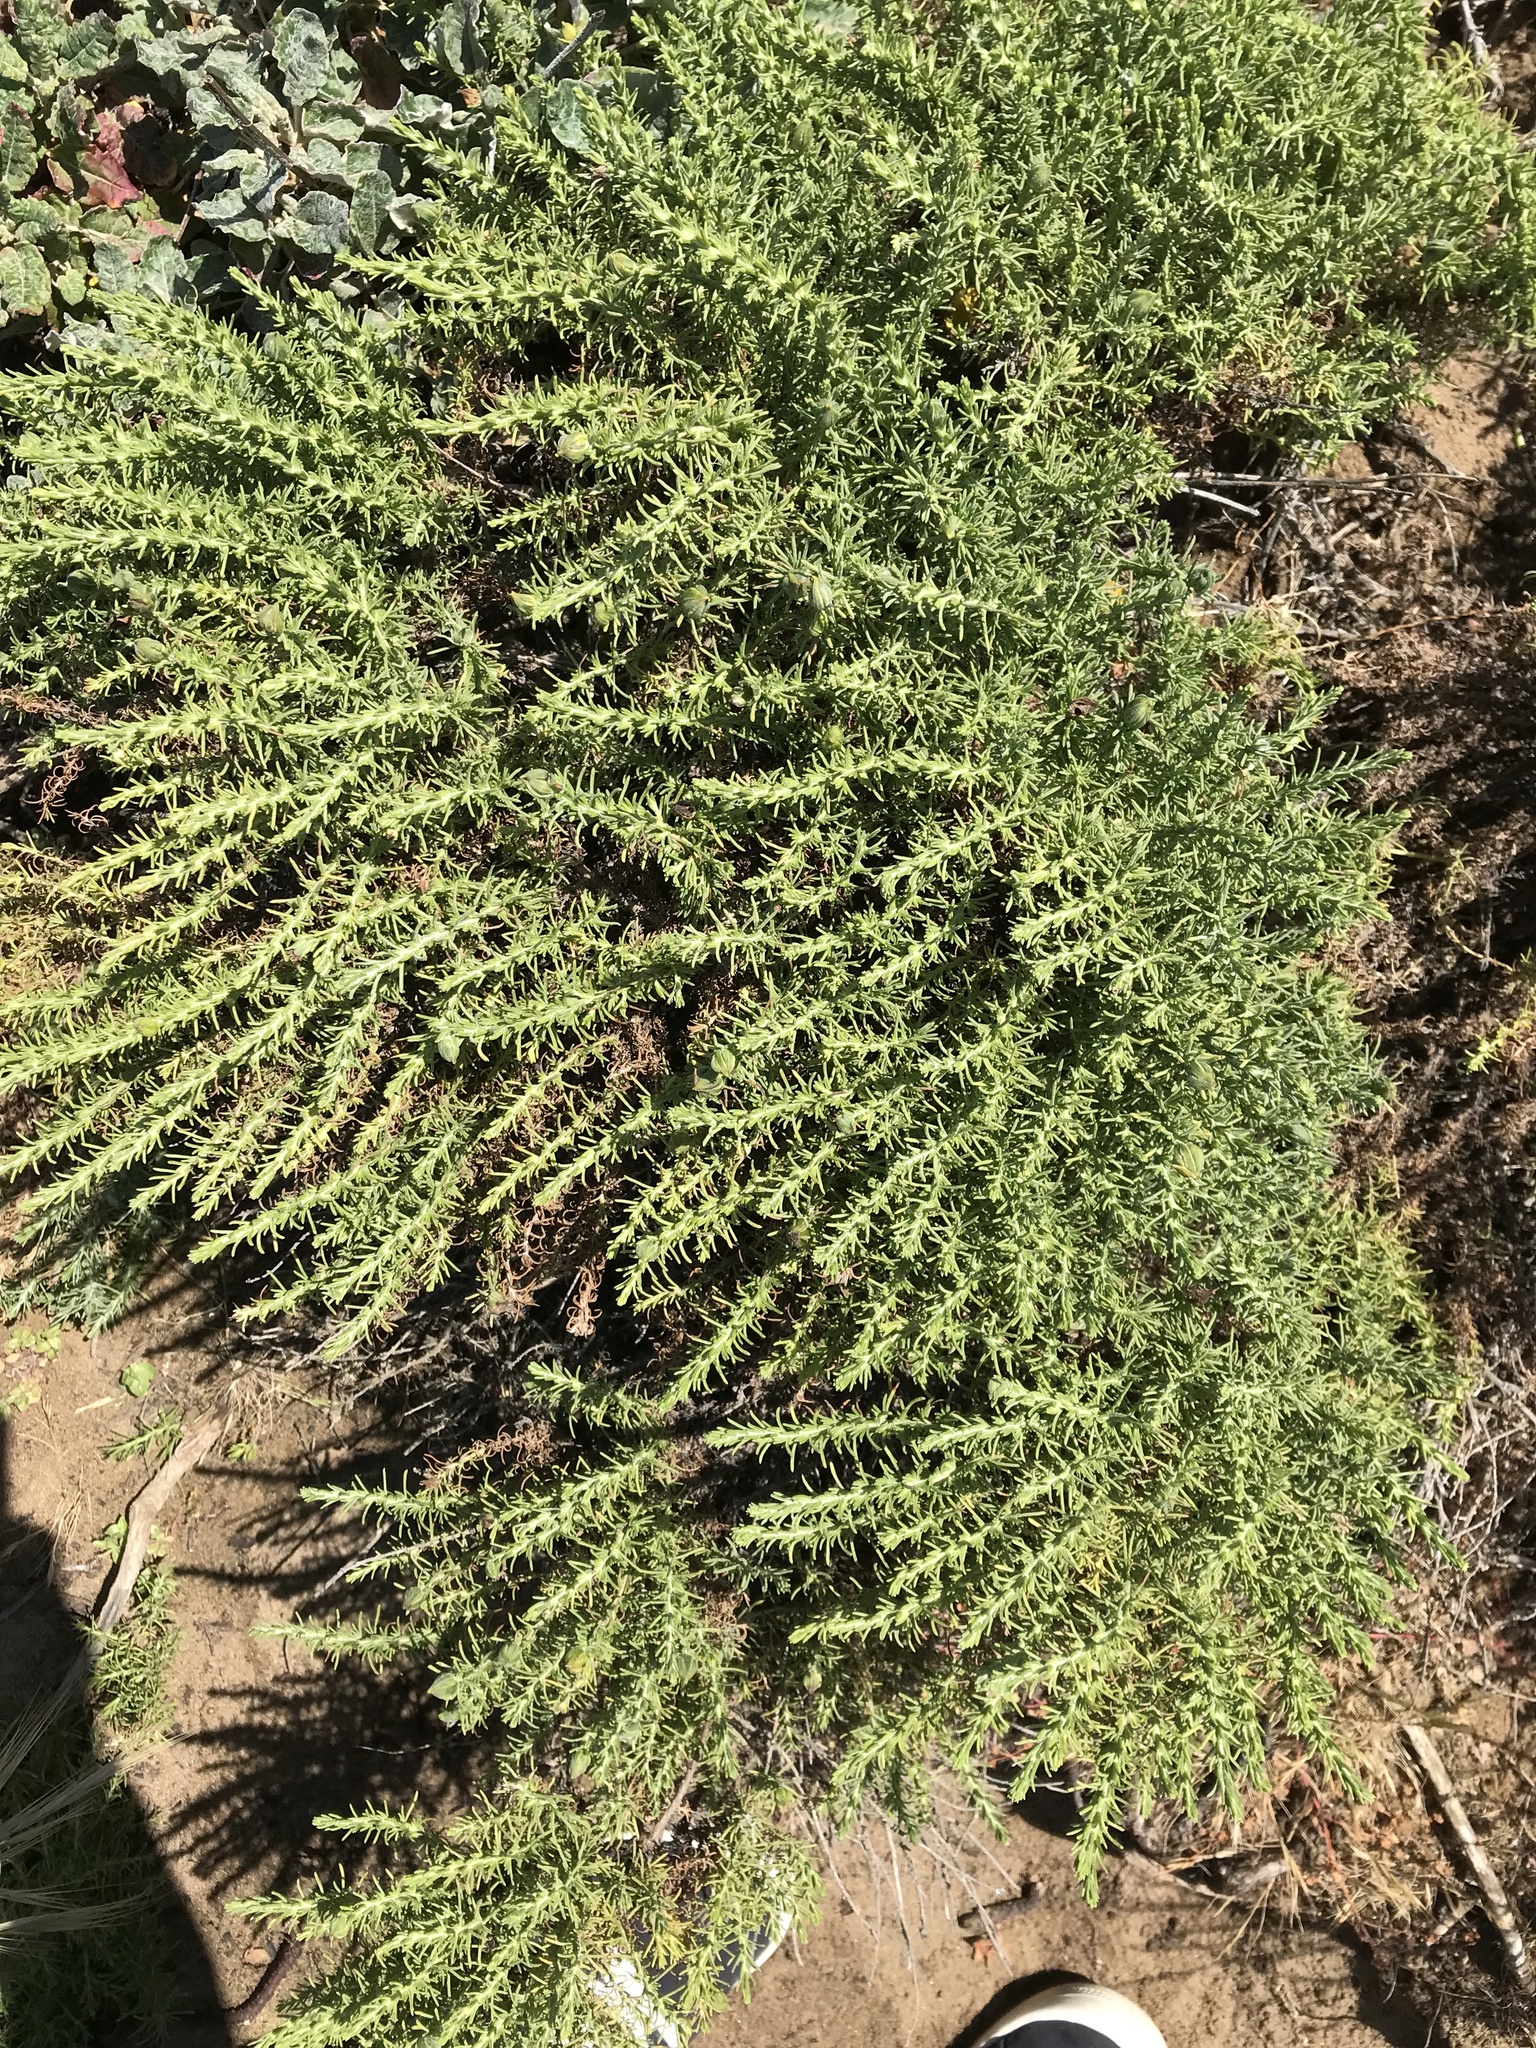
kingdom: Plantae
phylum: Tracheophyta
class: Magnoliopsida
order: Asterales
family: Asteraceae
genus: Ericameria
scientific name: Ericameria ericoides
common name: California goldenbush
